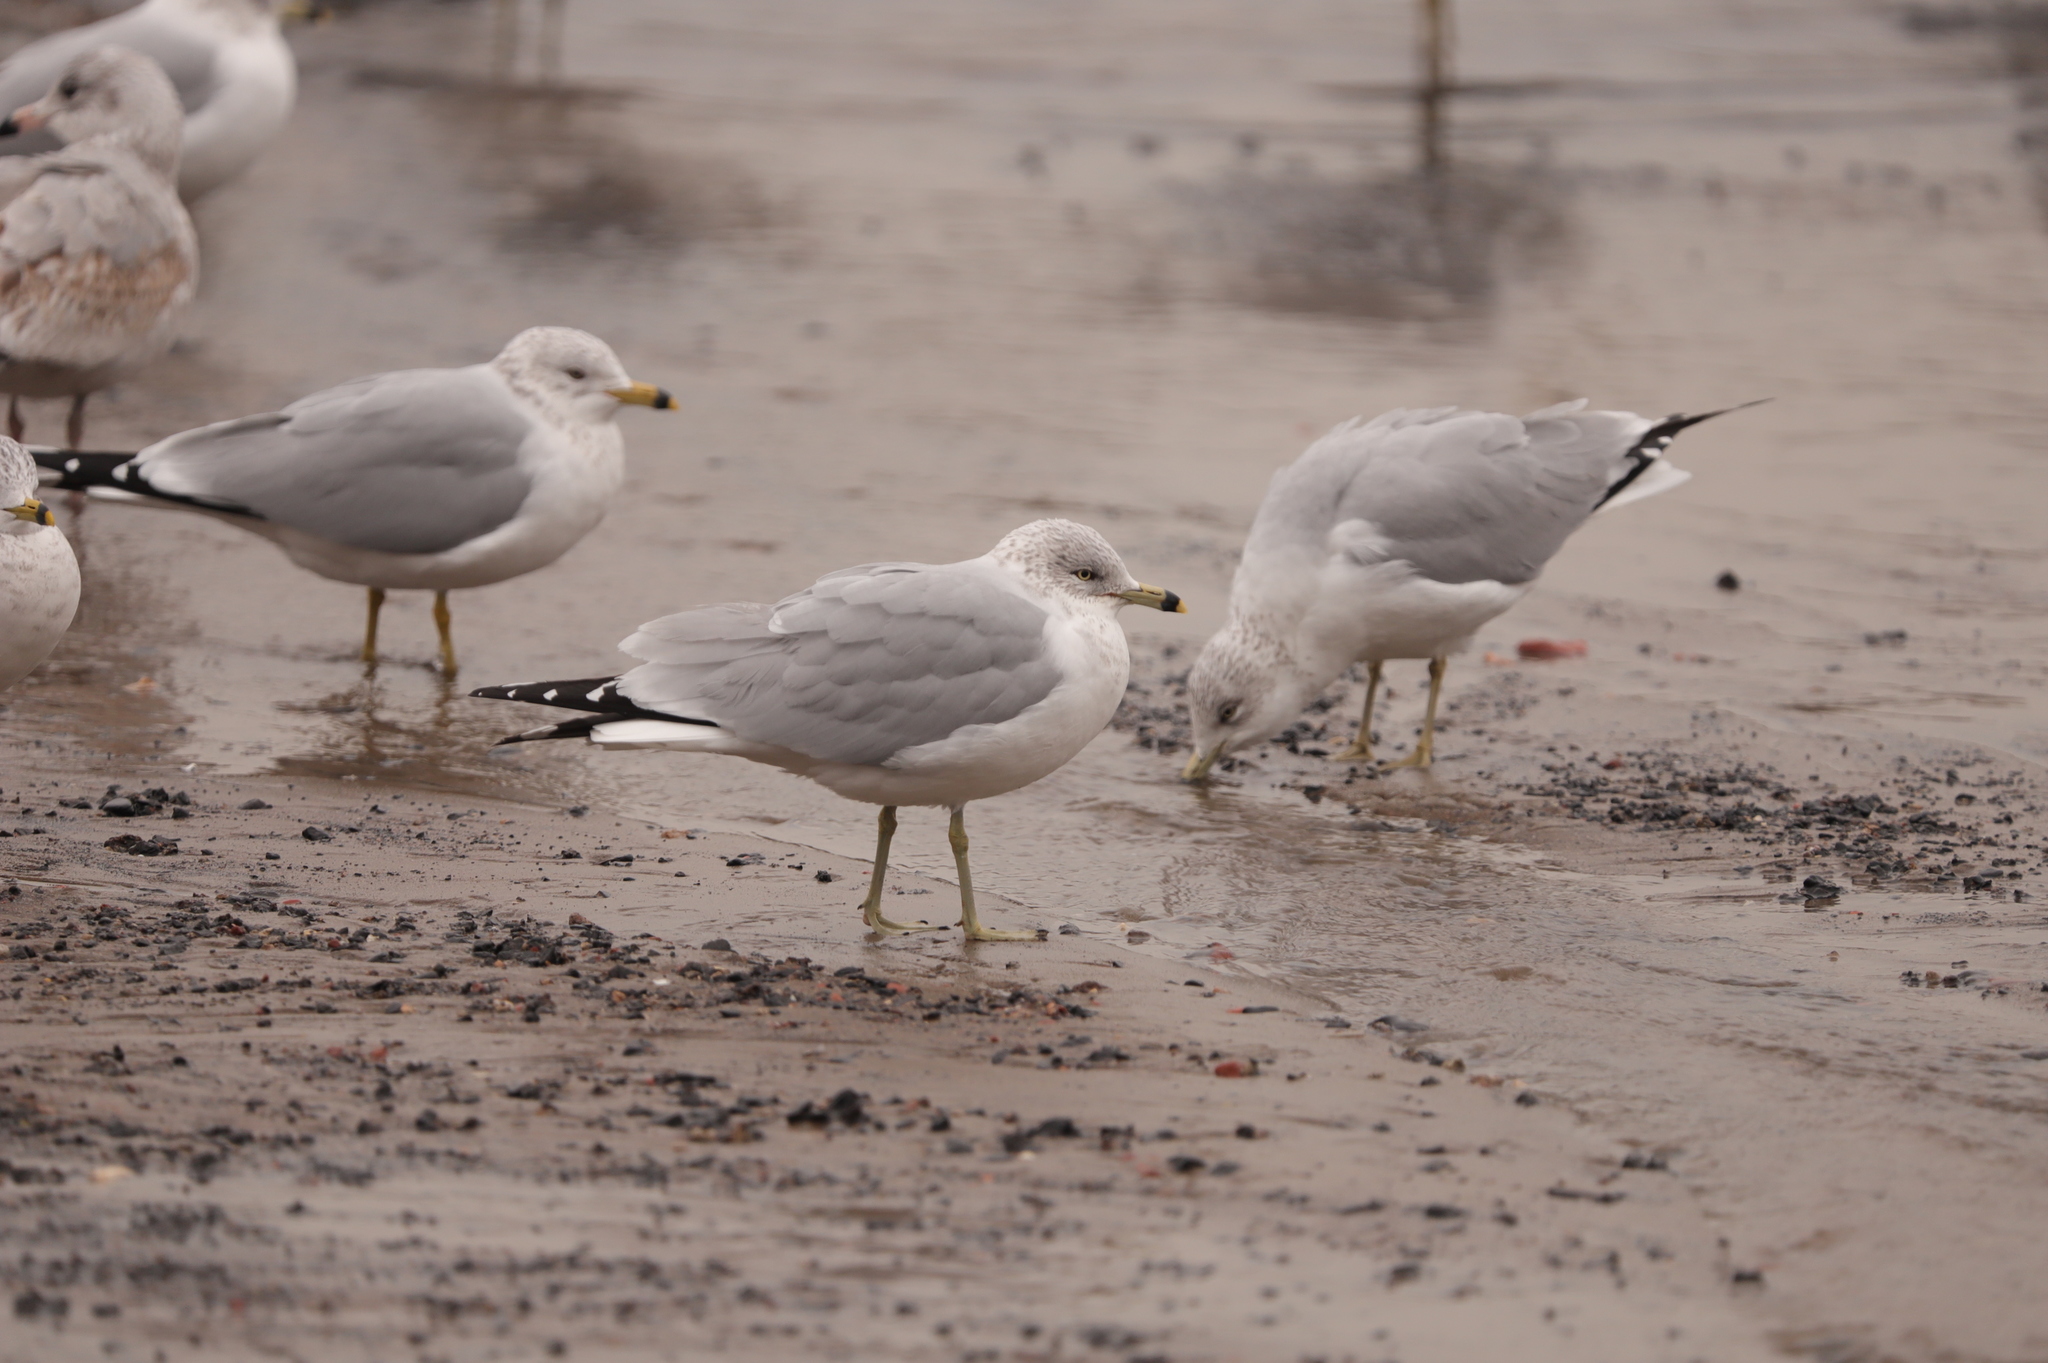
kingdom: Animalia
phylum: Chordata
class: Aves
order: Charadriiformes
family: Laridae
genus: Larus
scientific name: Larus delawarensis
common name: Ring-billed gull
